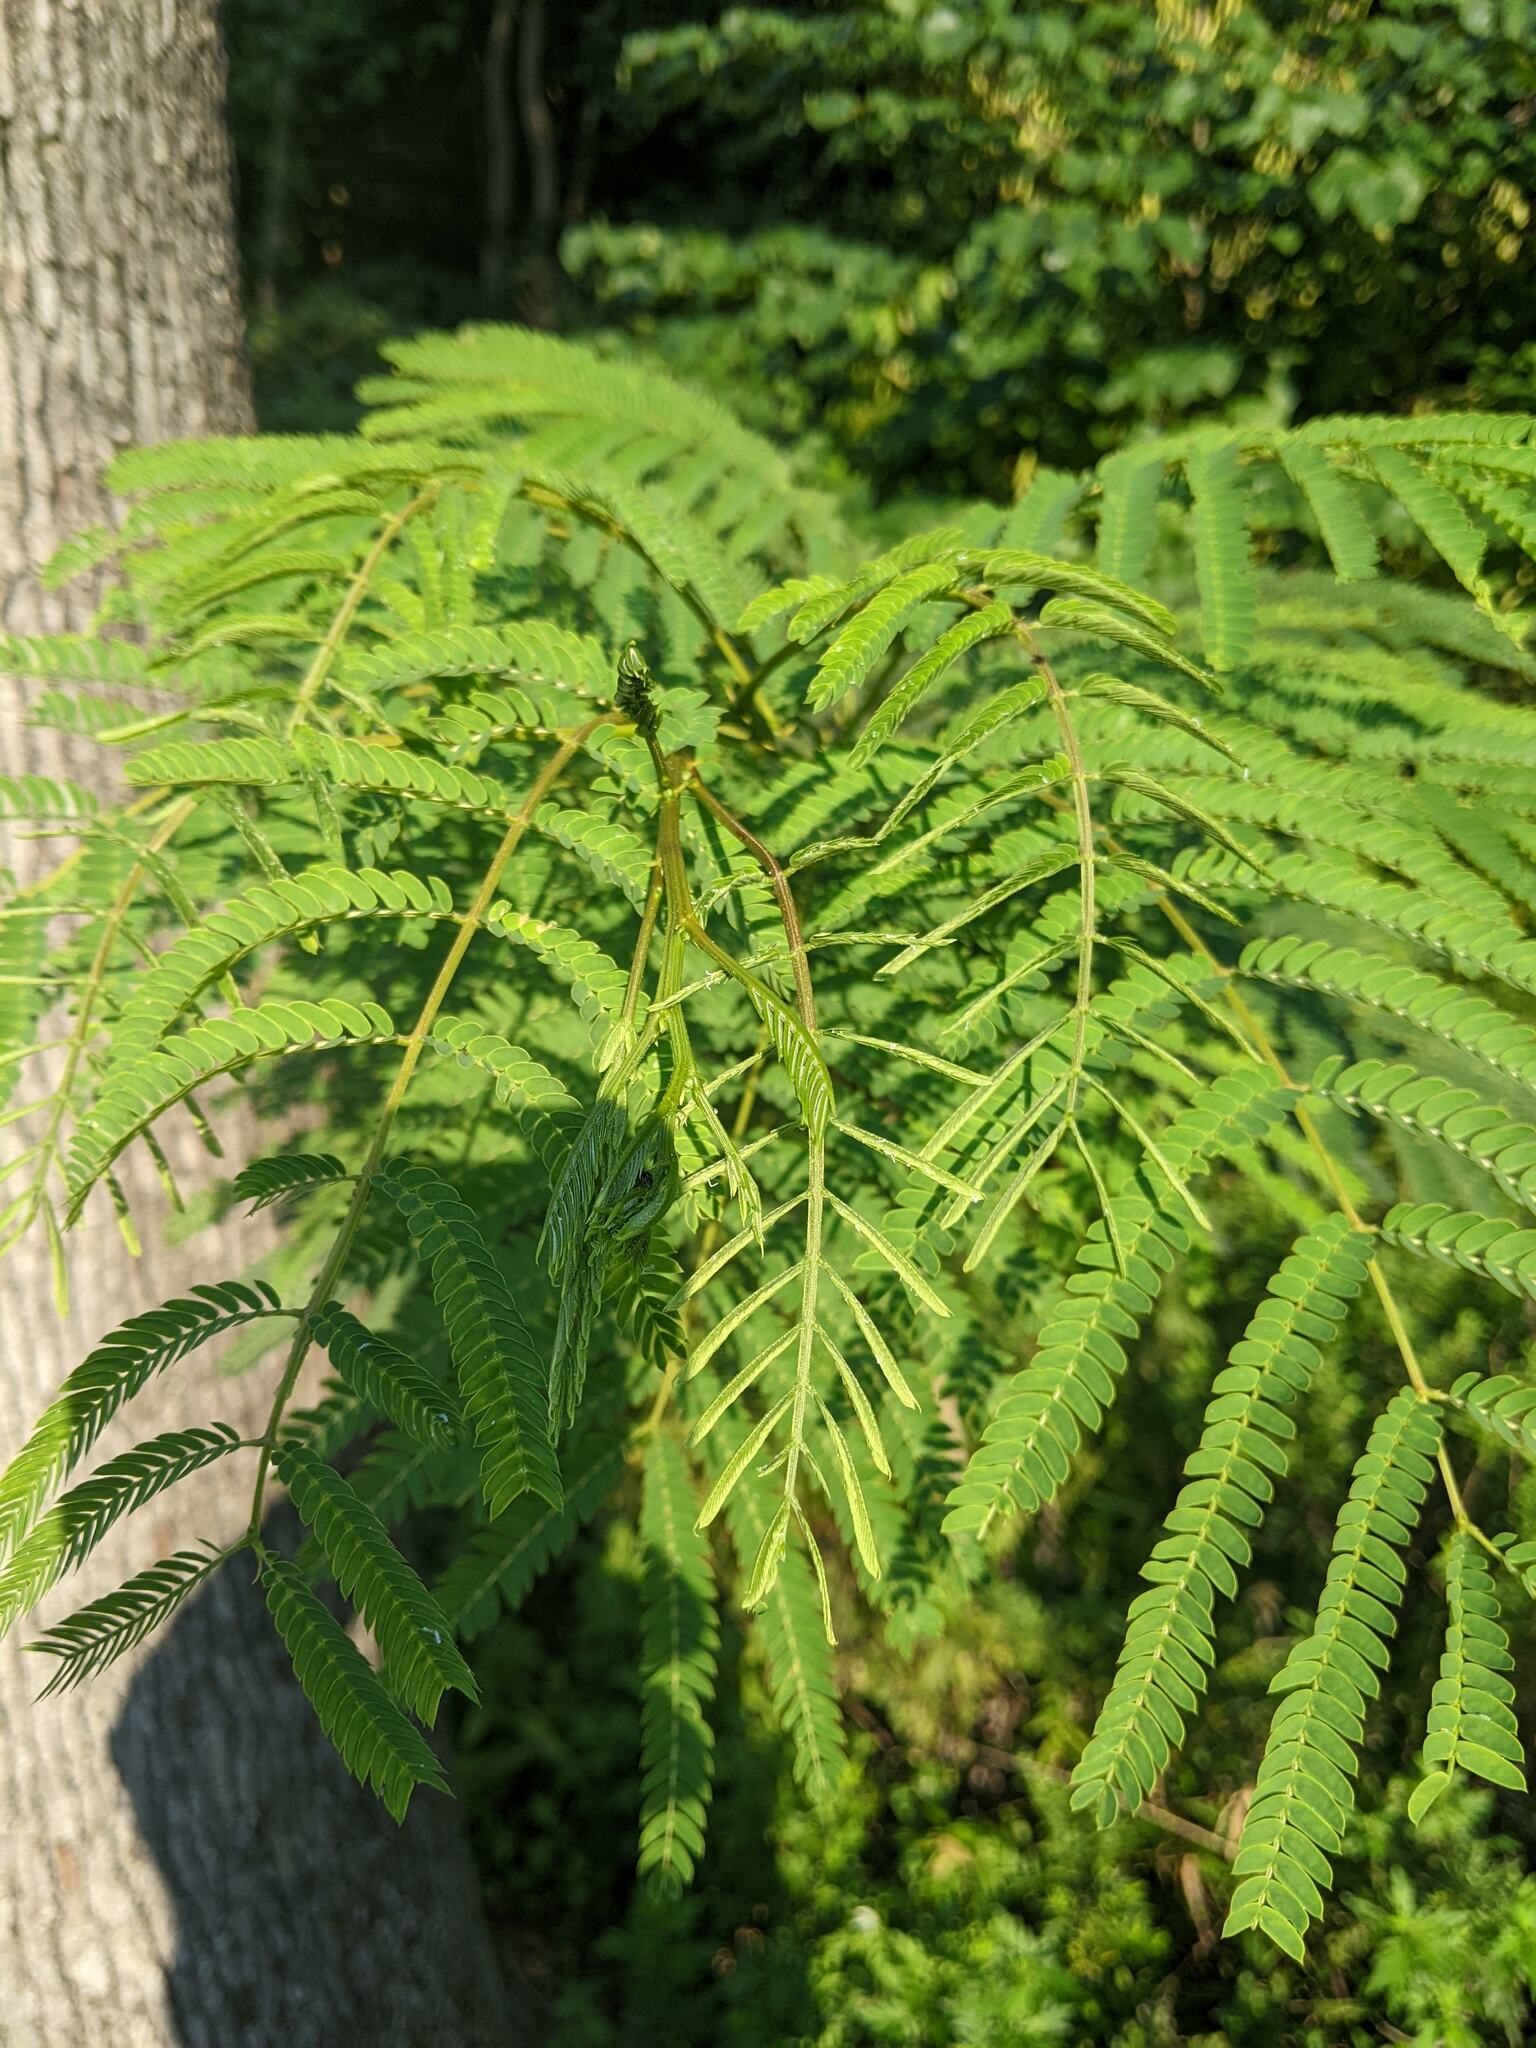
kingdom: Plantae
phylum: Tracheophyta
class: Magnoliopsida
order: Fabales
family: Fabaceae
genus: Albizia
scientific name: Albizia julibrissin
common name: Silktree
